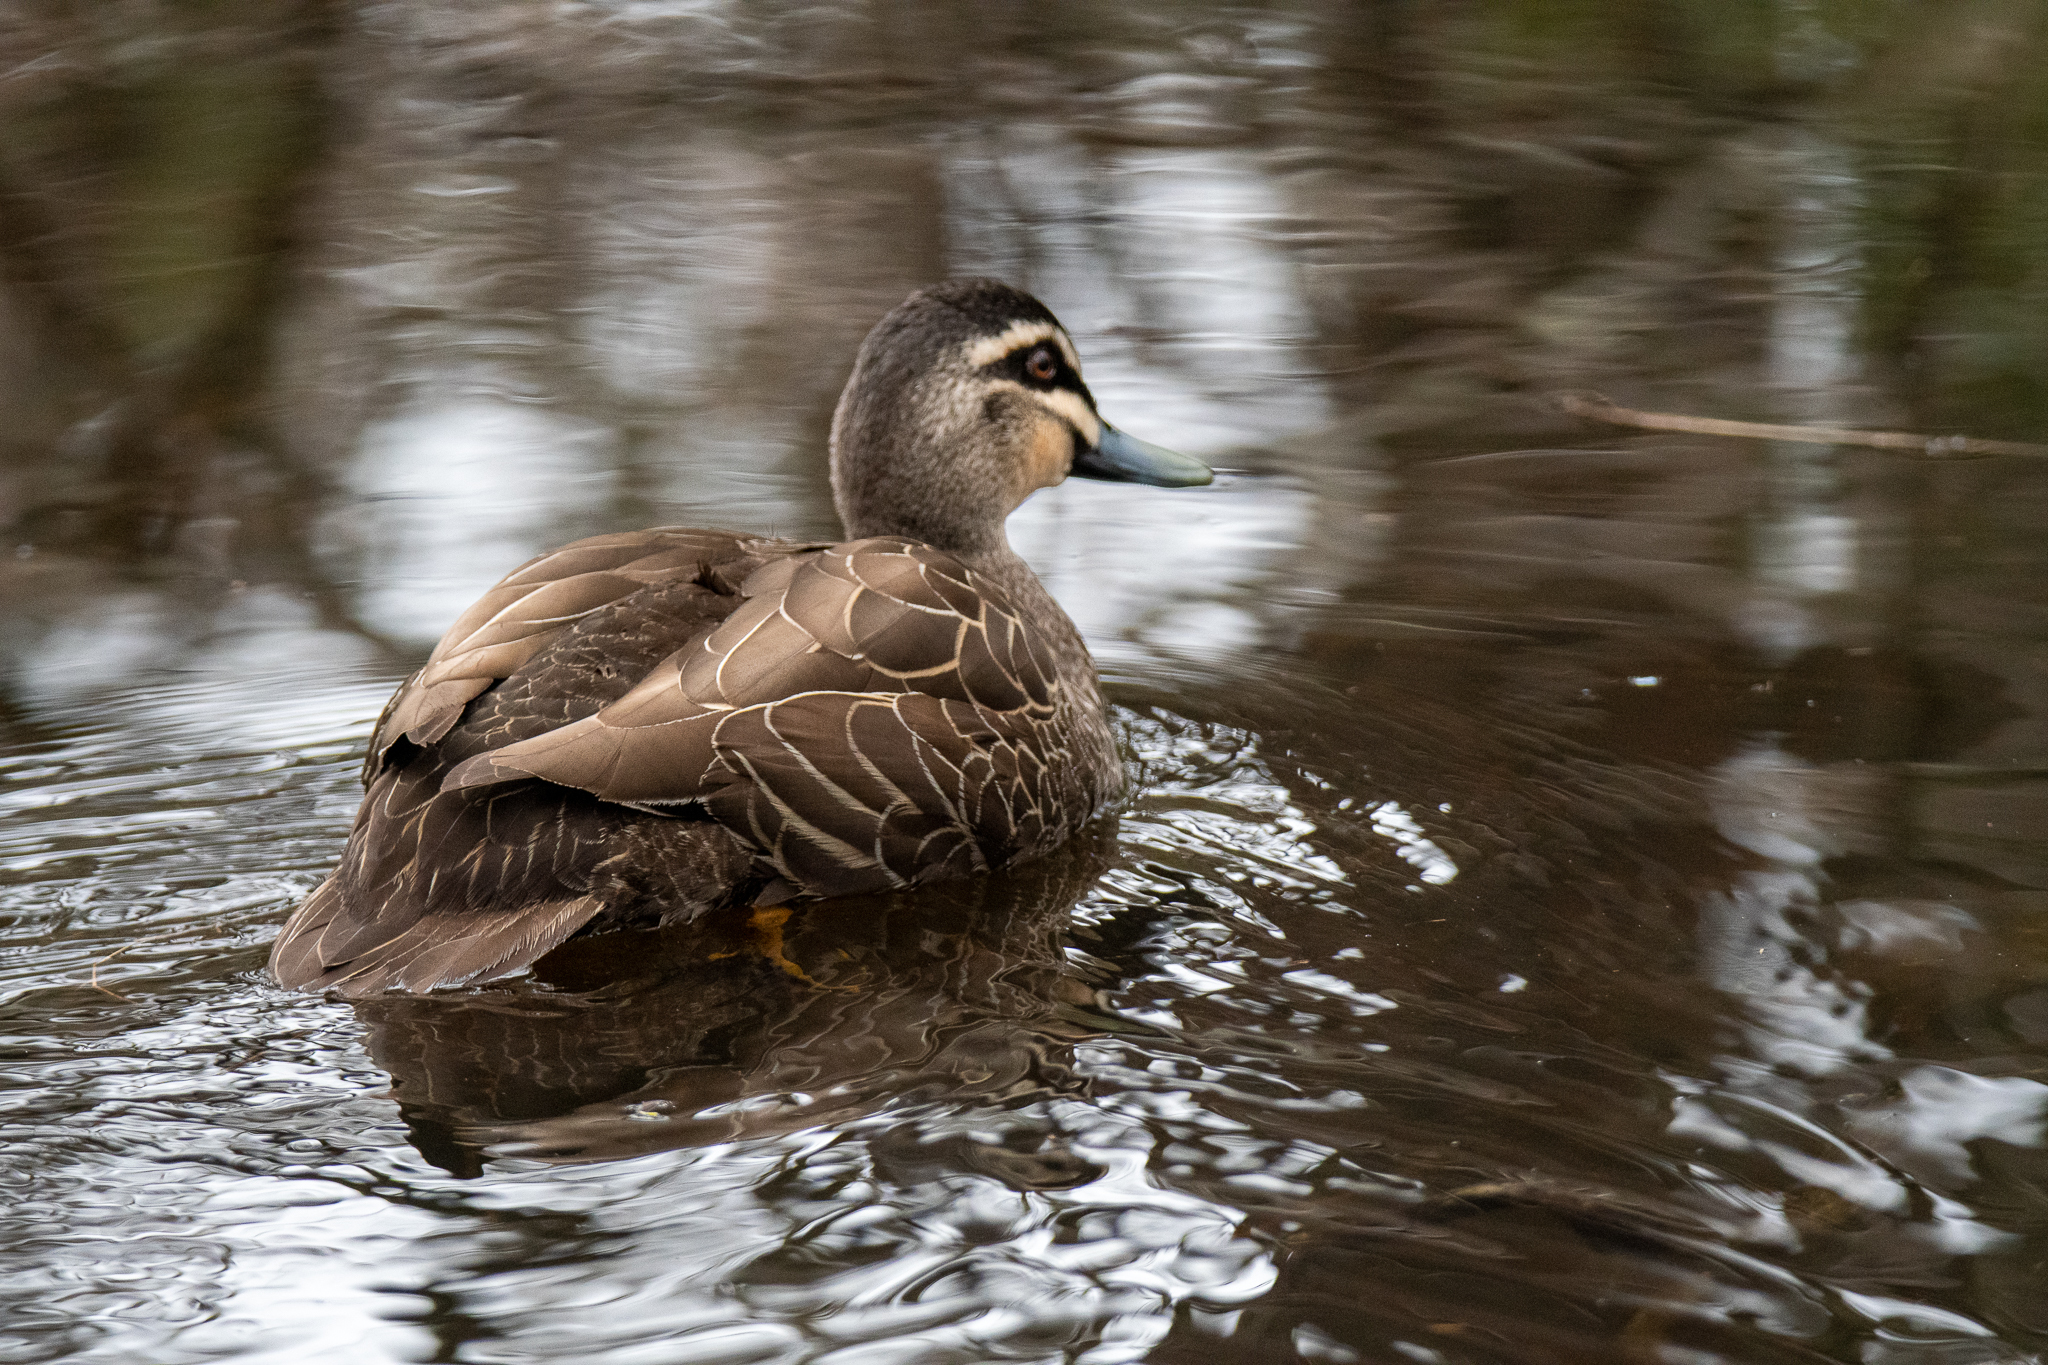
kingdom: Animalia
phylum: Chordata
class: Aves
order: Anseriformes
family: Anatidae
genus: Anas
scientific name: Anas superciliosa
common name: Pacific black duck
